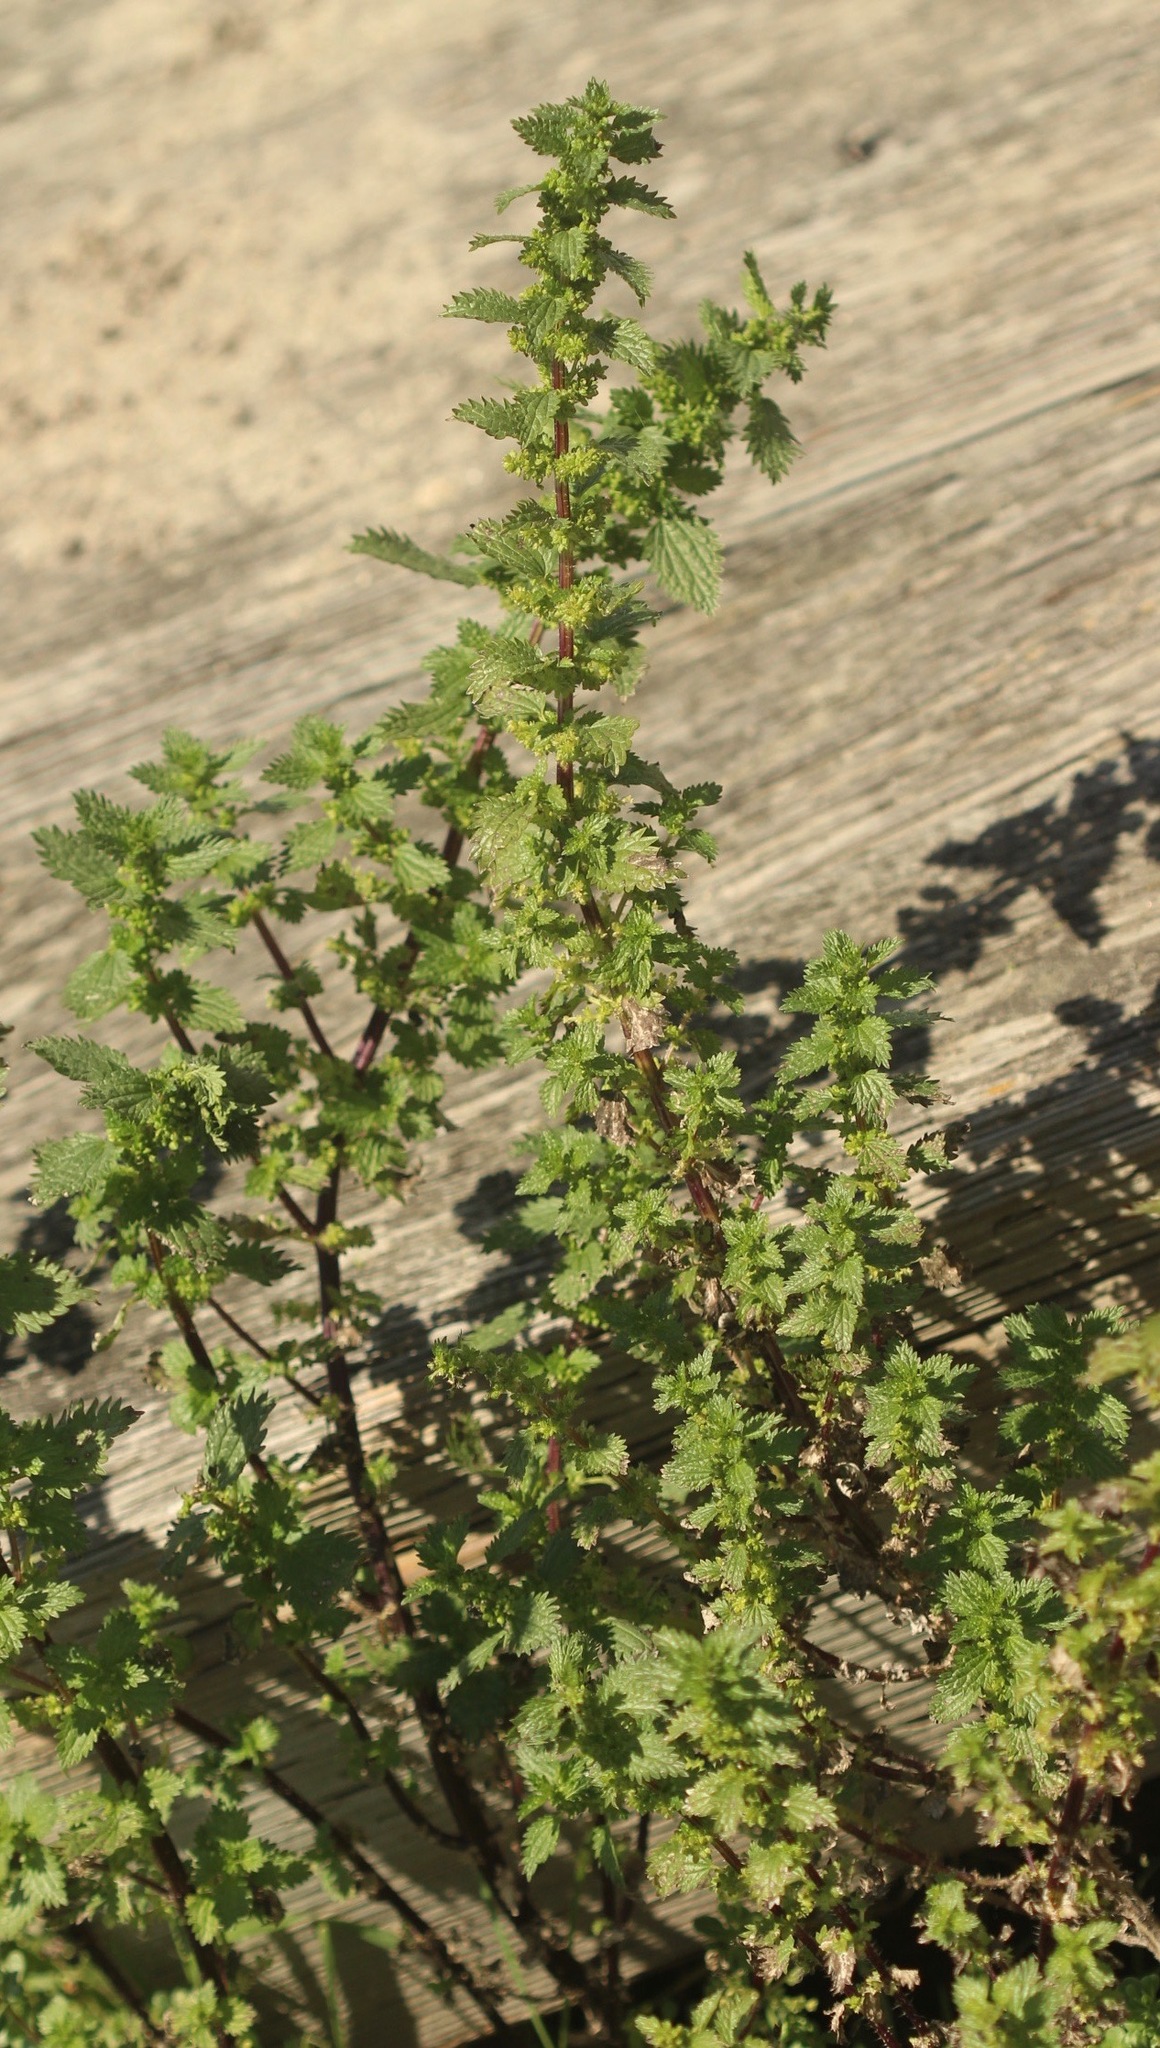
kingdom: Plantae
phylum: Tracheophyta
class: Magnoliopsida
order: Rosales
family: Urticaceae
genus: Urtica
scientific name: Urtica urens
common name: Dwarf nettle
